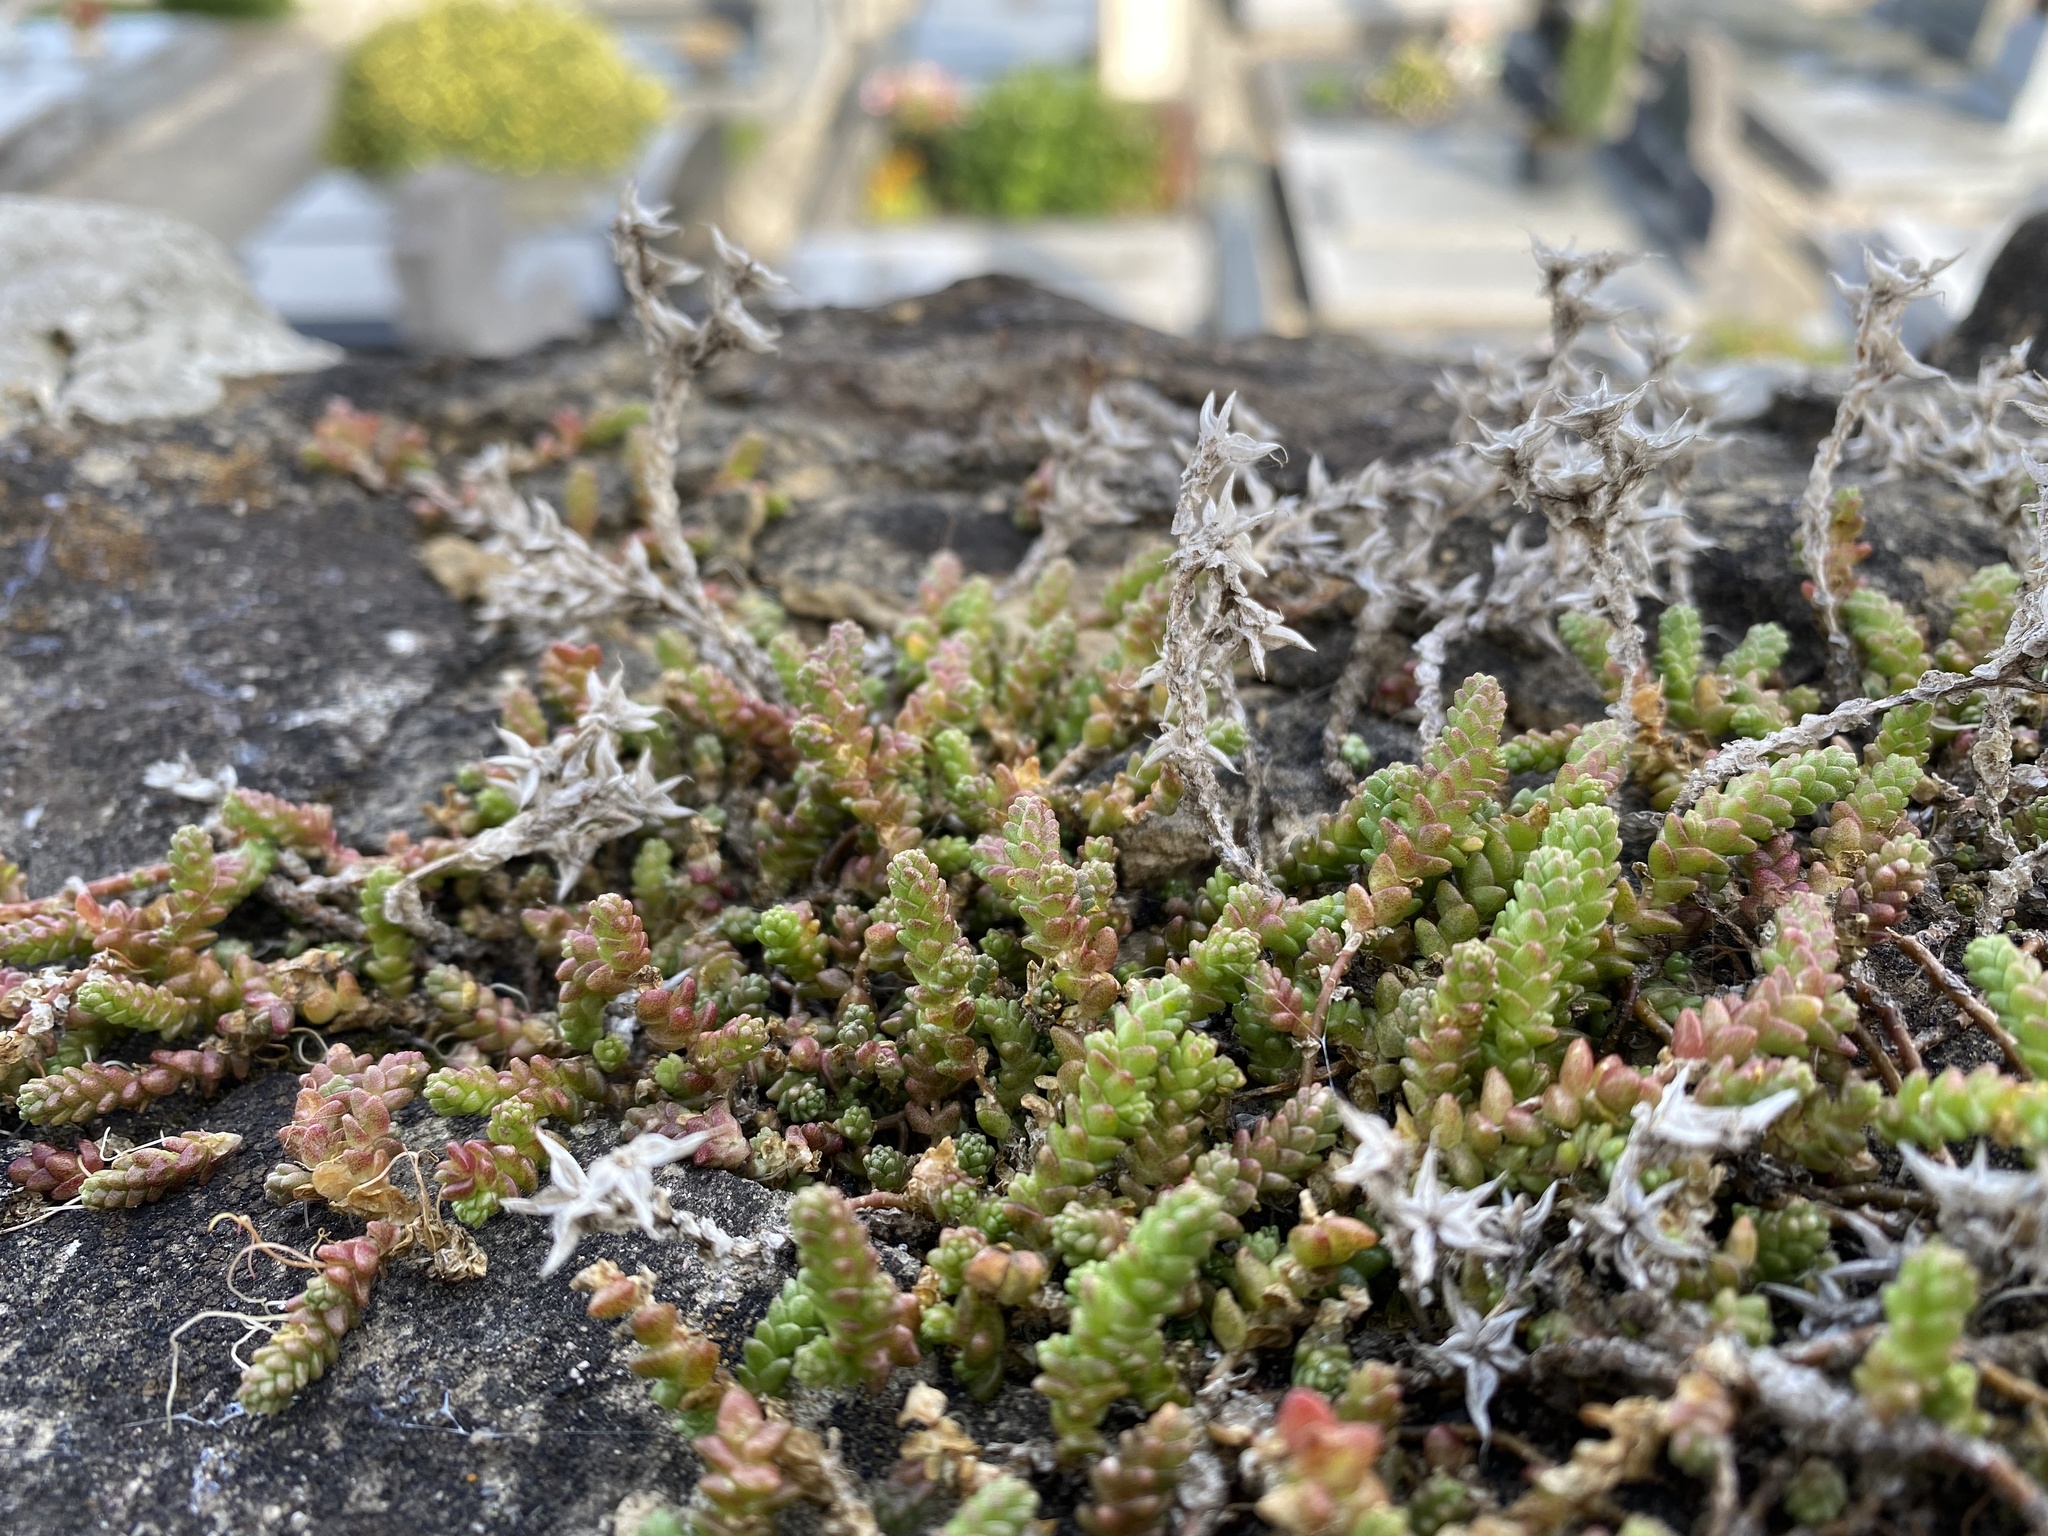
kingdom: Plantae
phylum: Tracheophyta
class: Magnoliopsida
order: Saxifragales
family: Crassulaceae
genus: Sedum
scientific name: Sedum acre
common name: Biting stonecrop
